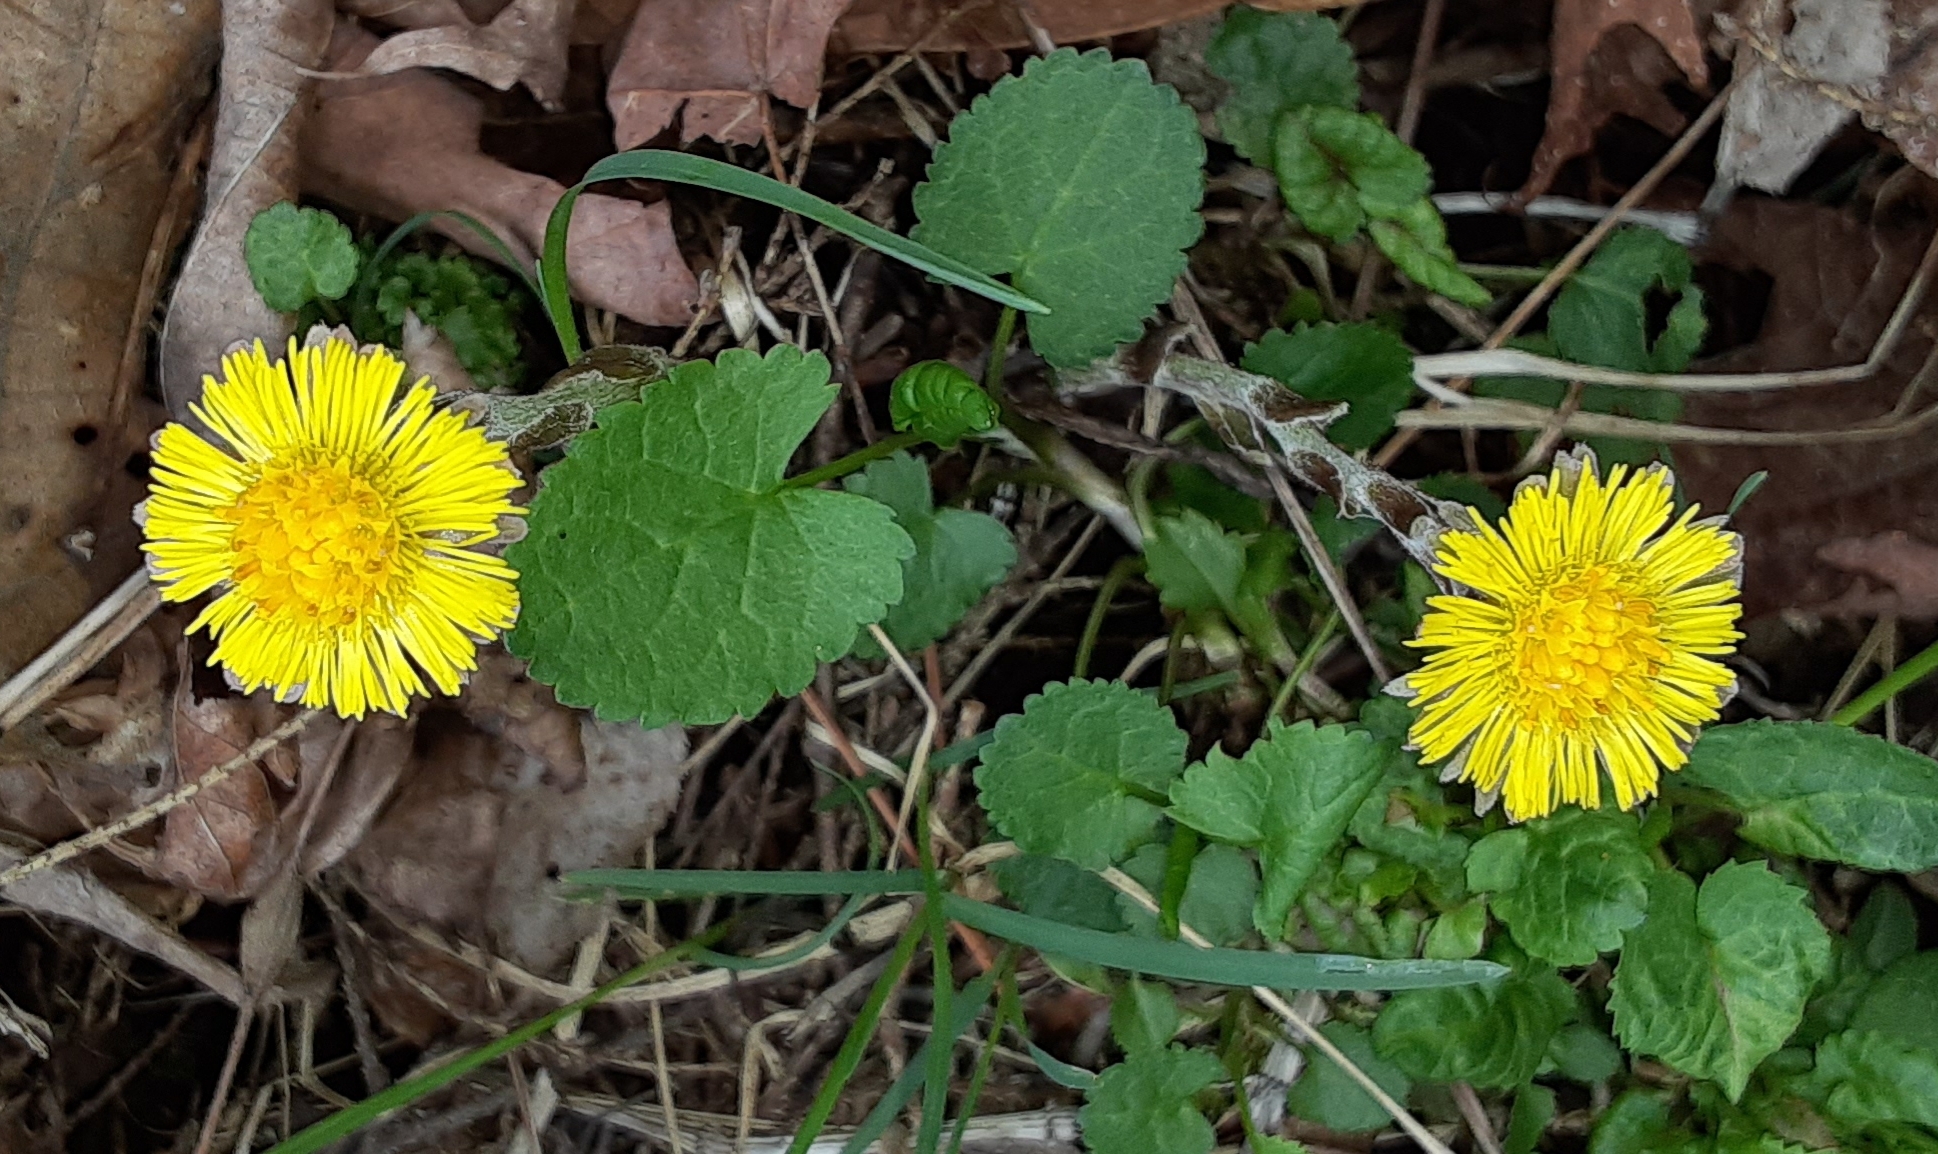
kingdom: Plantae
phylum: Tracheophyta
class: Magnoliopsida
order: Asterales
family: Asteraceae
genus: Tussilago
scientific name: Tussilago farfara
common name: Coltsfoot
